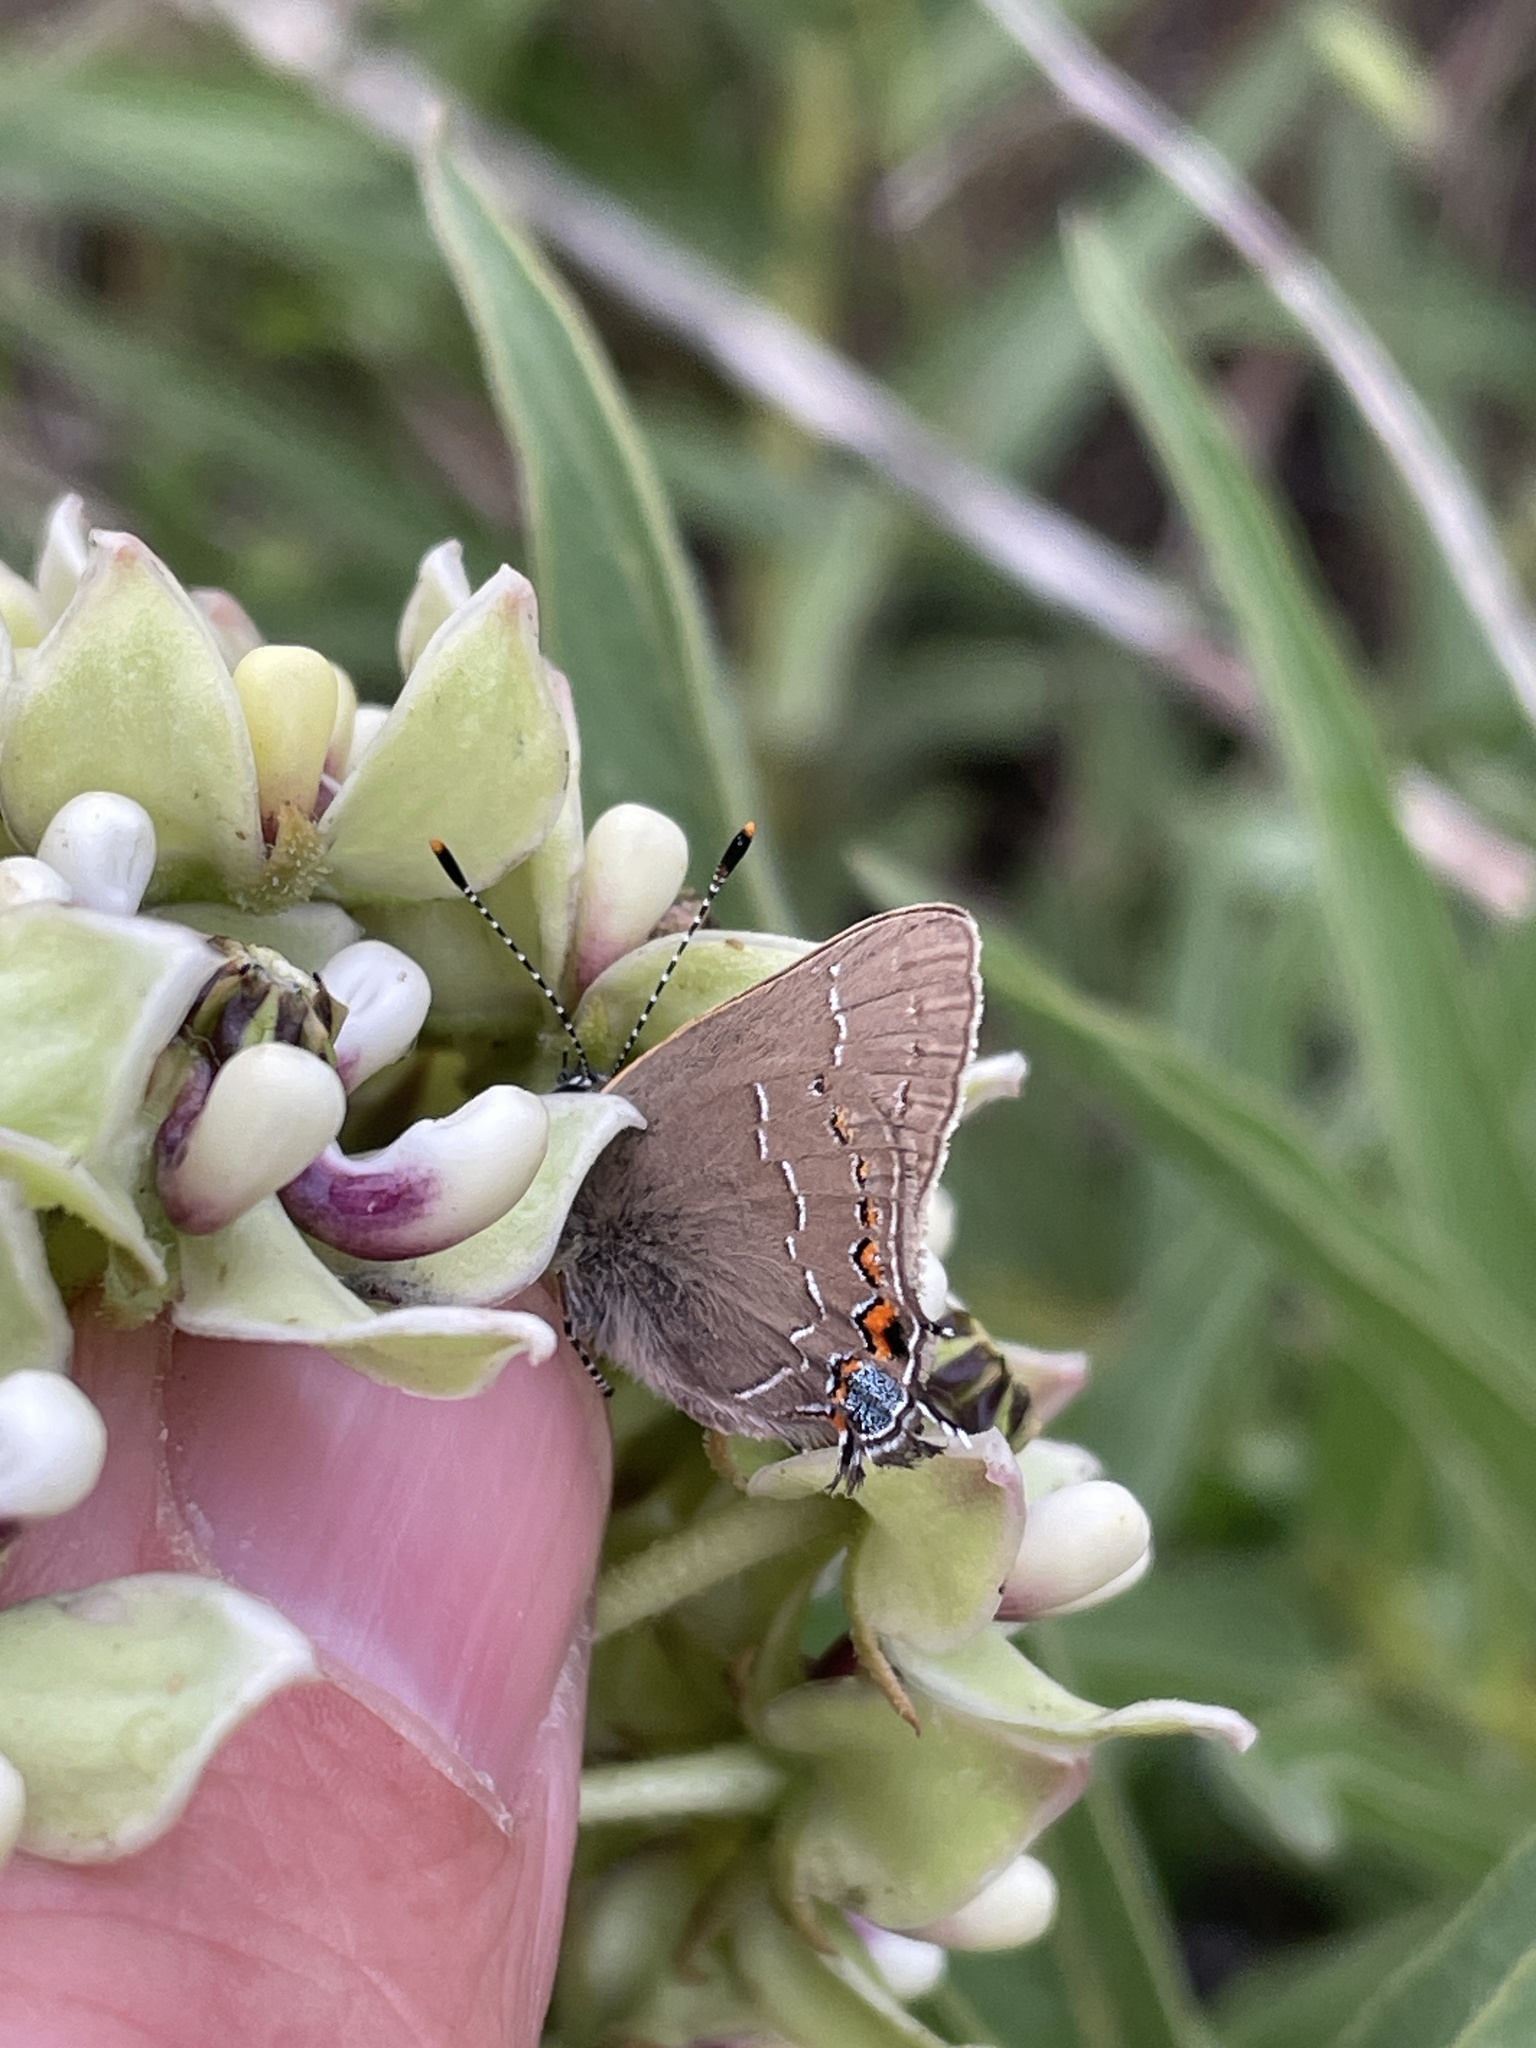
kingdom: Animalia
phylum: Arthropoda
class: Insecta
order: Lepidoptera
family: Lycaenidae
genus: Fixsenia
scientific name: Fixsenia favonius
